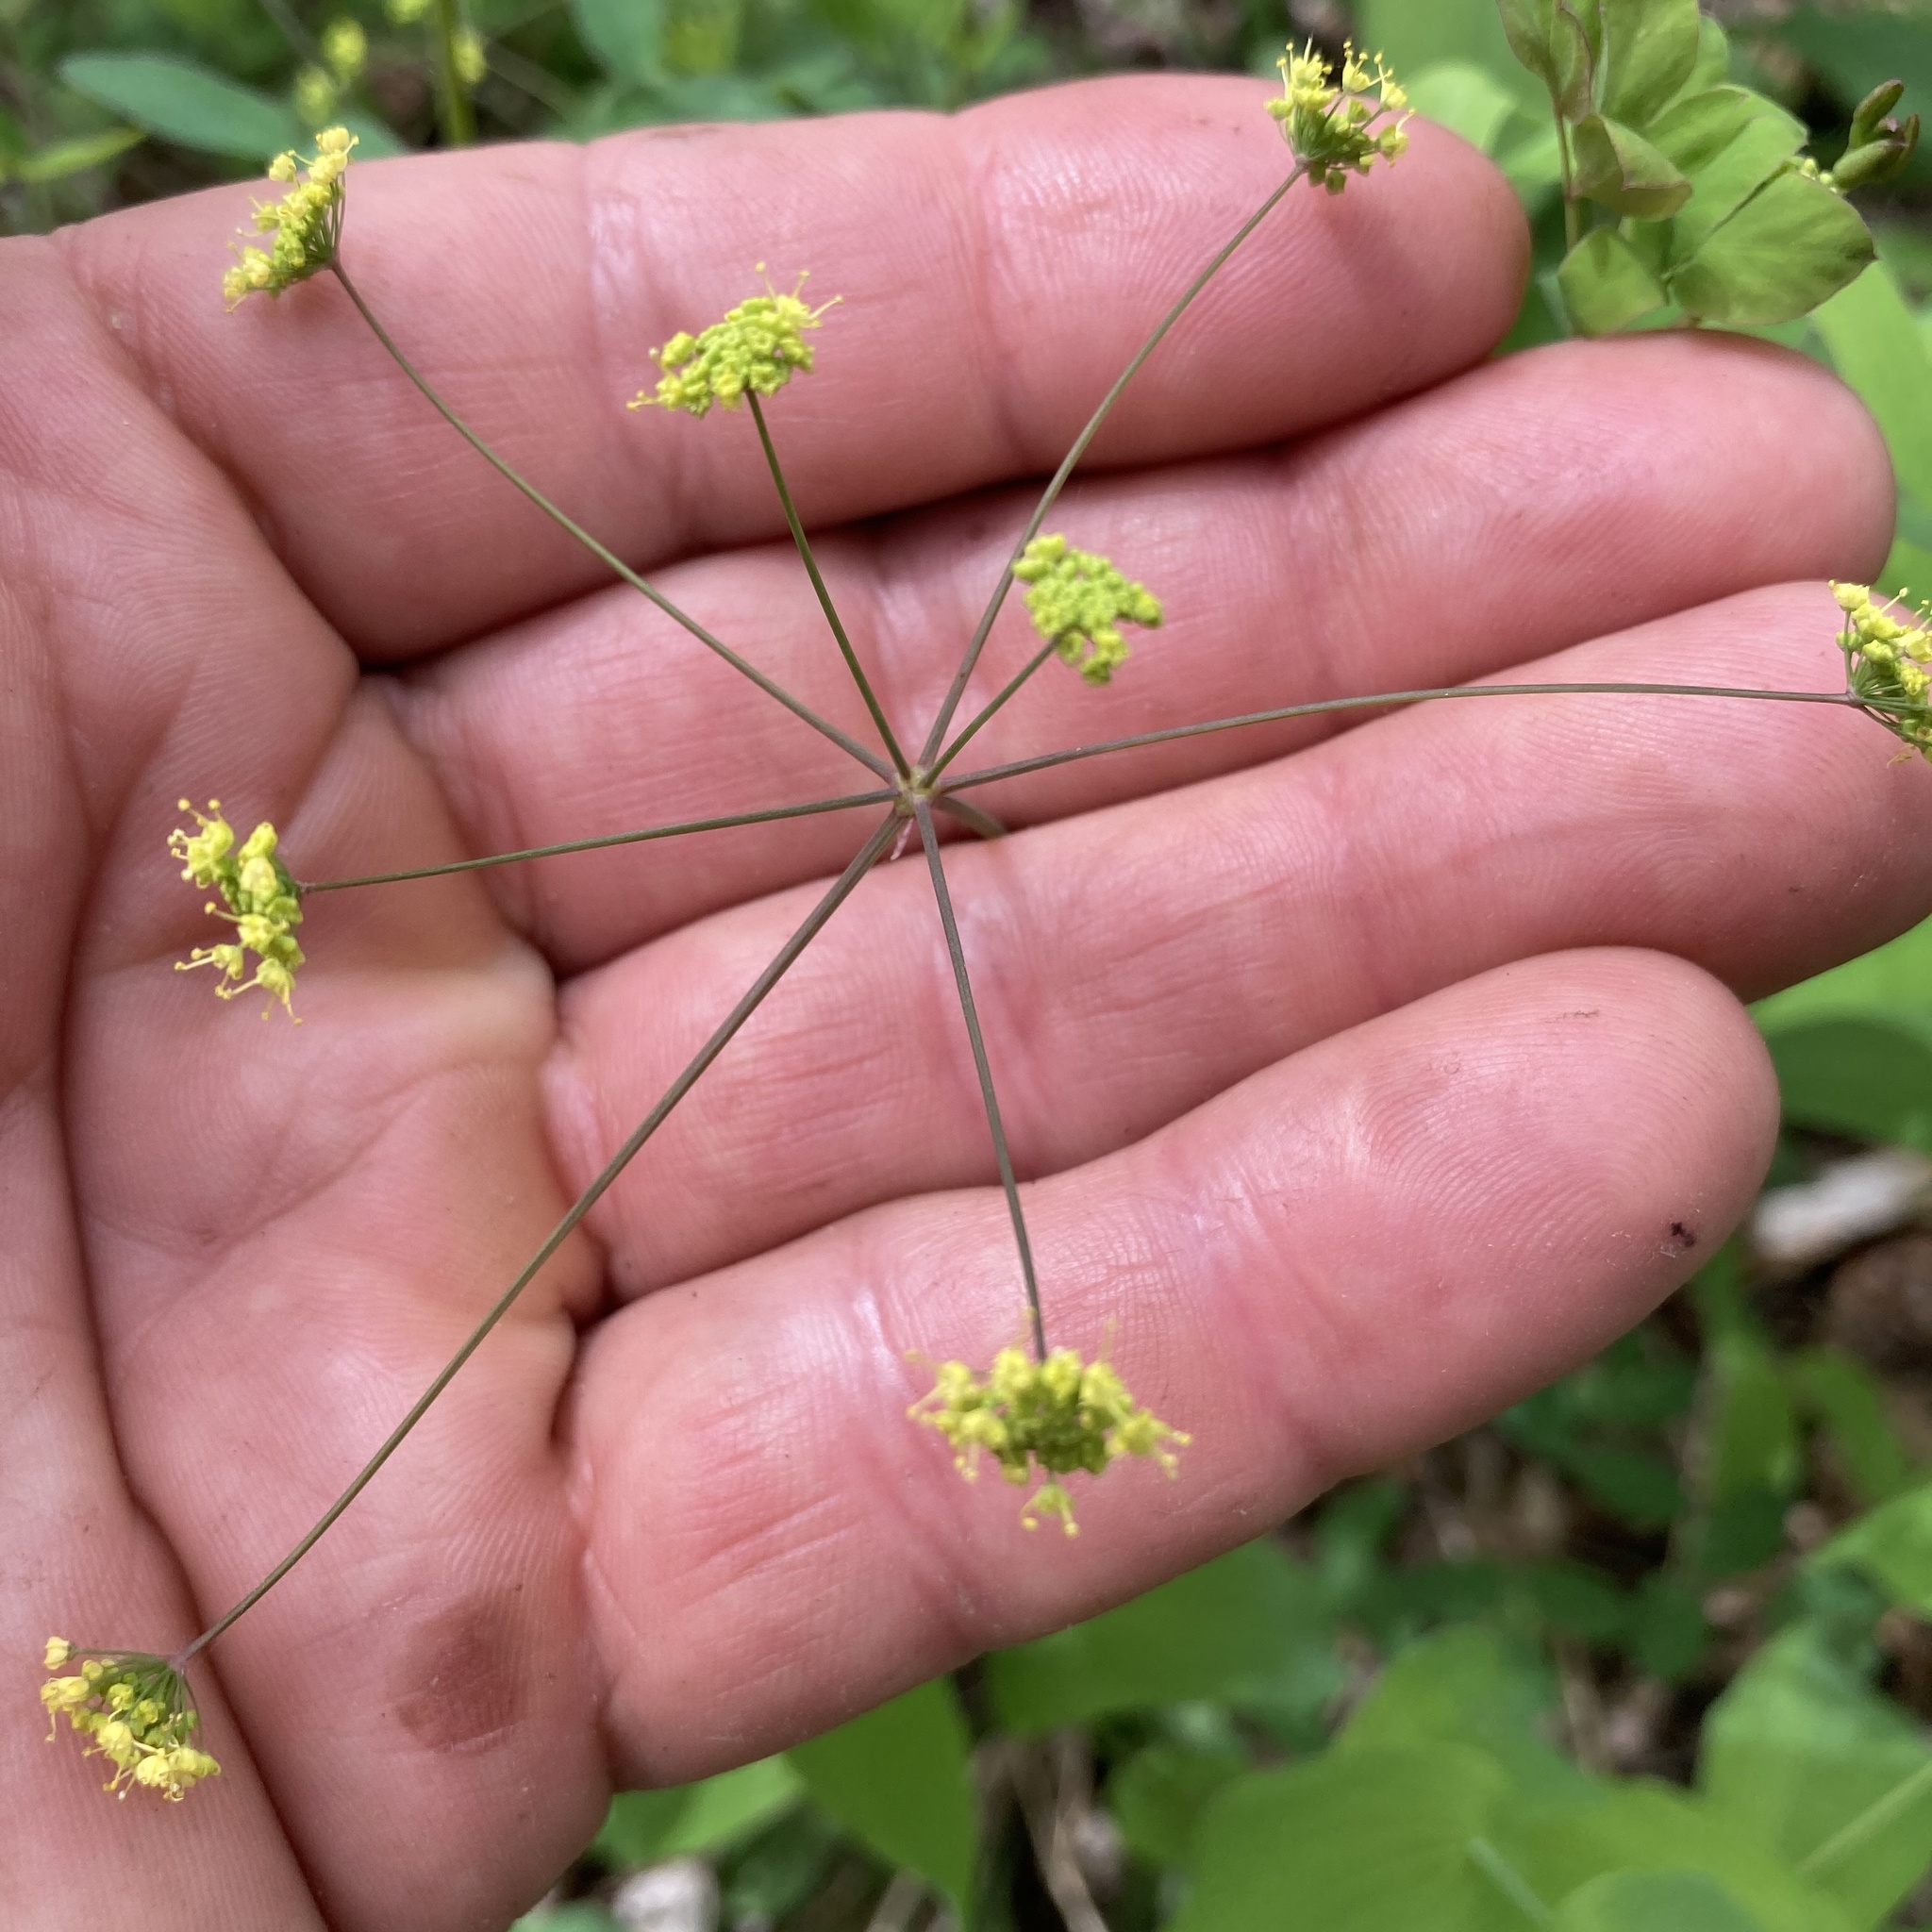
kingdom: Plantae
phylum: Tracheophyta
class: Magnoliopsida
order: Apiales
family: Apiaceae
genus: Taenidia
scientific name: Taenidia integerrima
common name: Golden alexander
